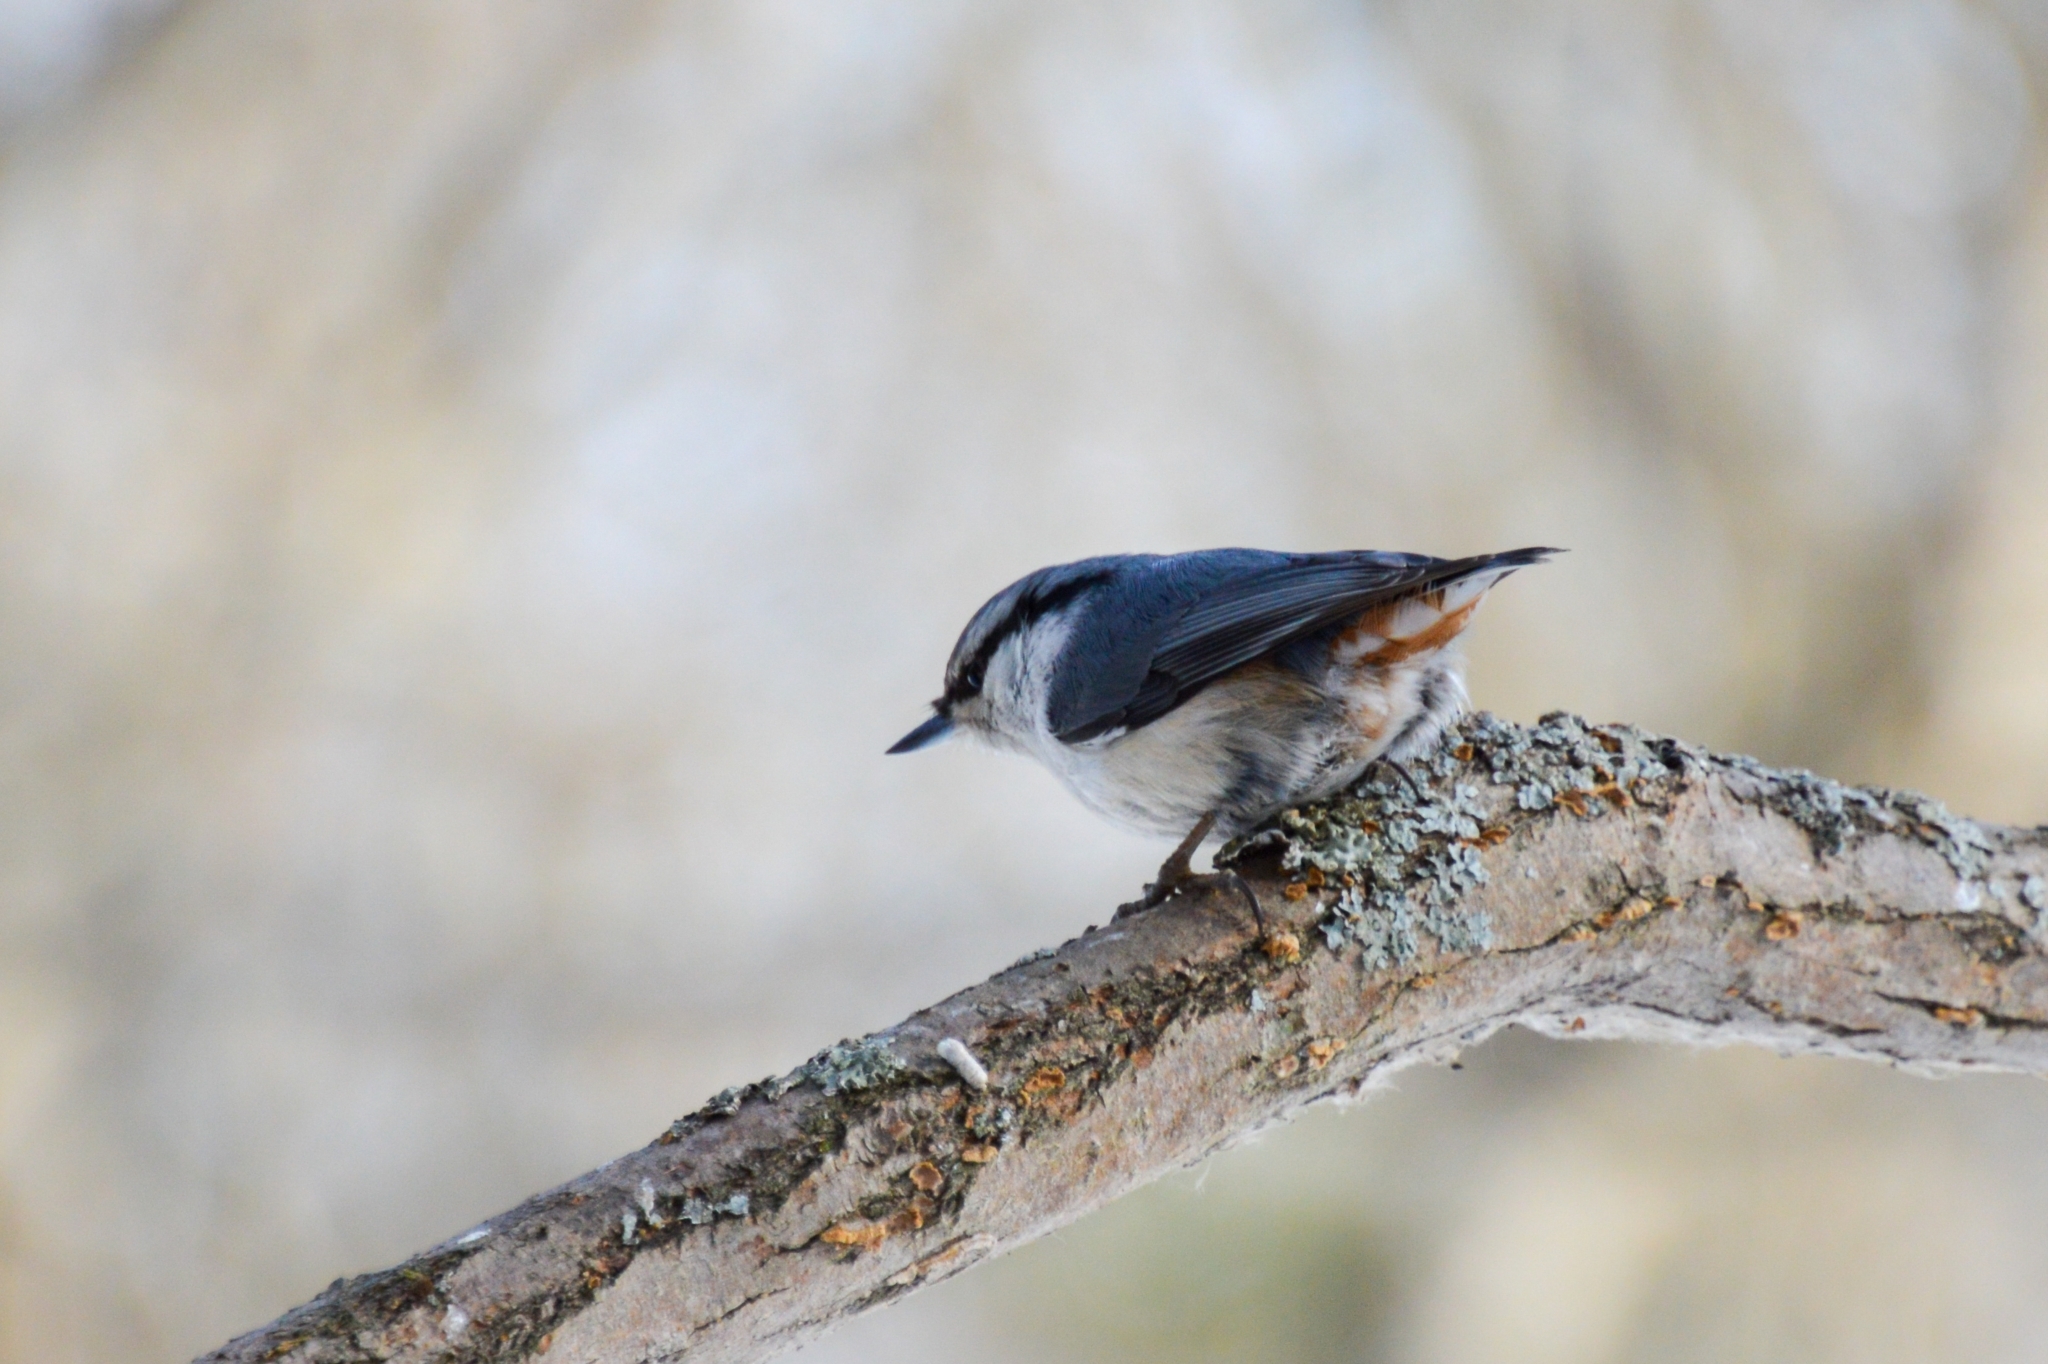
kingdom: Animalia
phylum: Chordata
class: Aves
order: Passeriformes
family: Sittidae
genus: Sitta
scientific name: Sitta europaea
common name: Eurasian nuthatch
